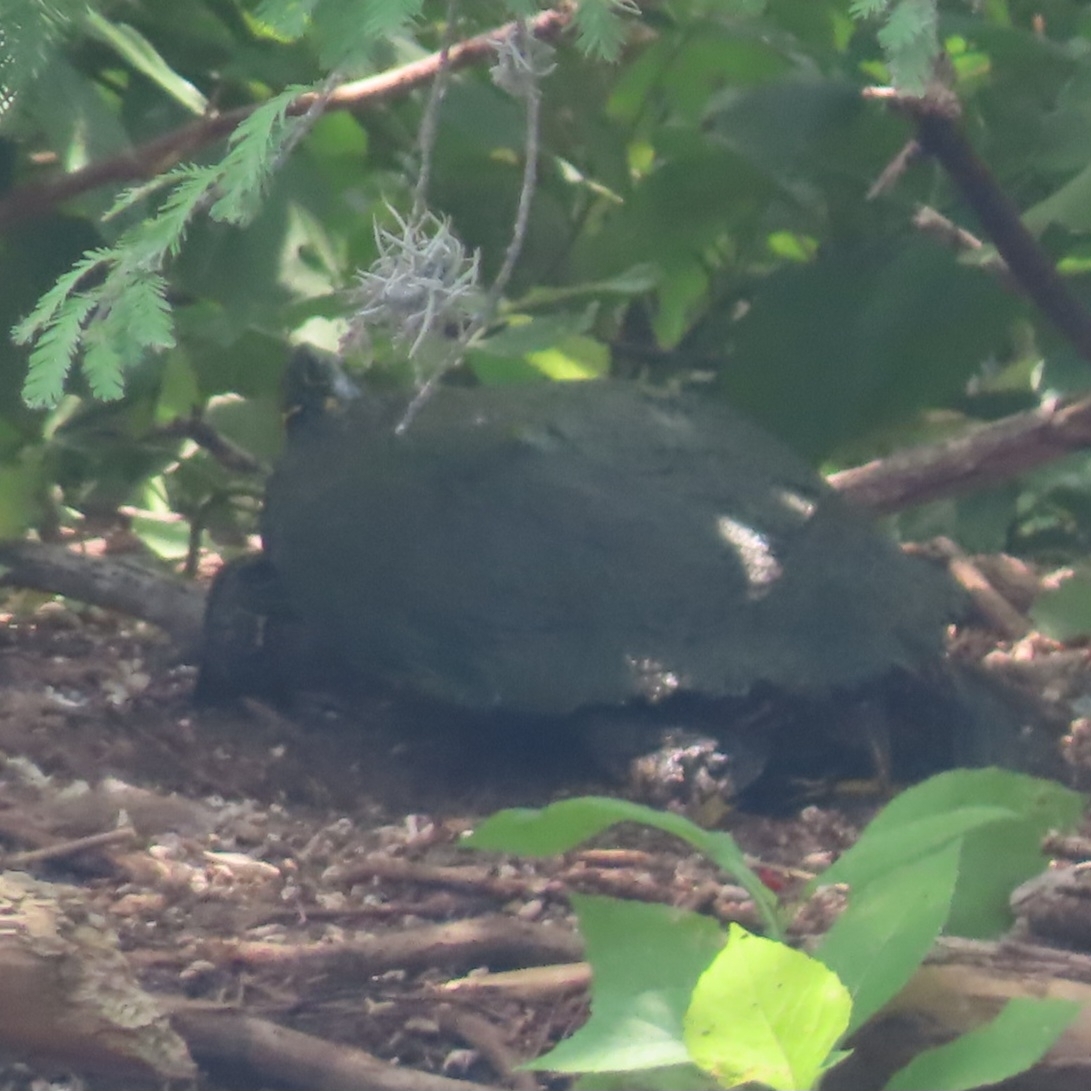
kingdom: Animalia
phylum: Chordata
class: Testudines
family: Emydidae
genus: Pseudemys
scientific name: Pseudemys texana
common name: Texas river cooter
